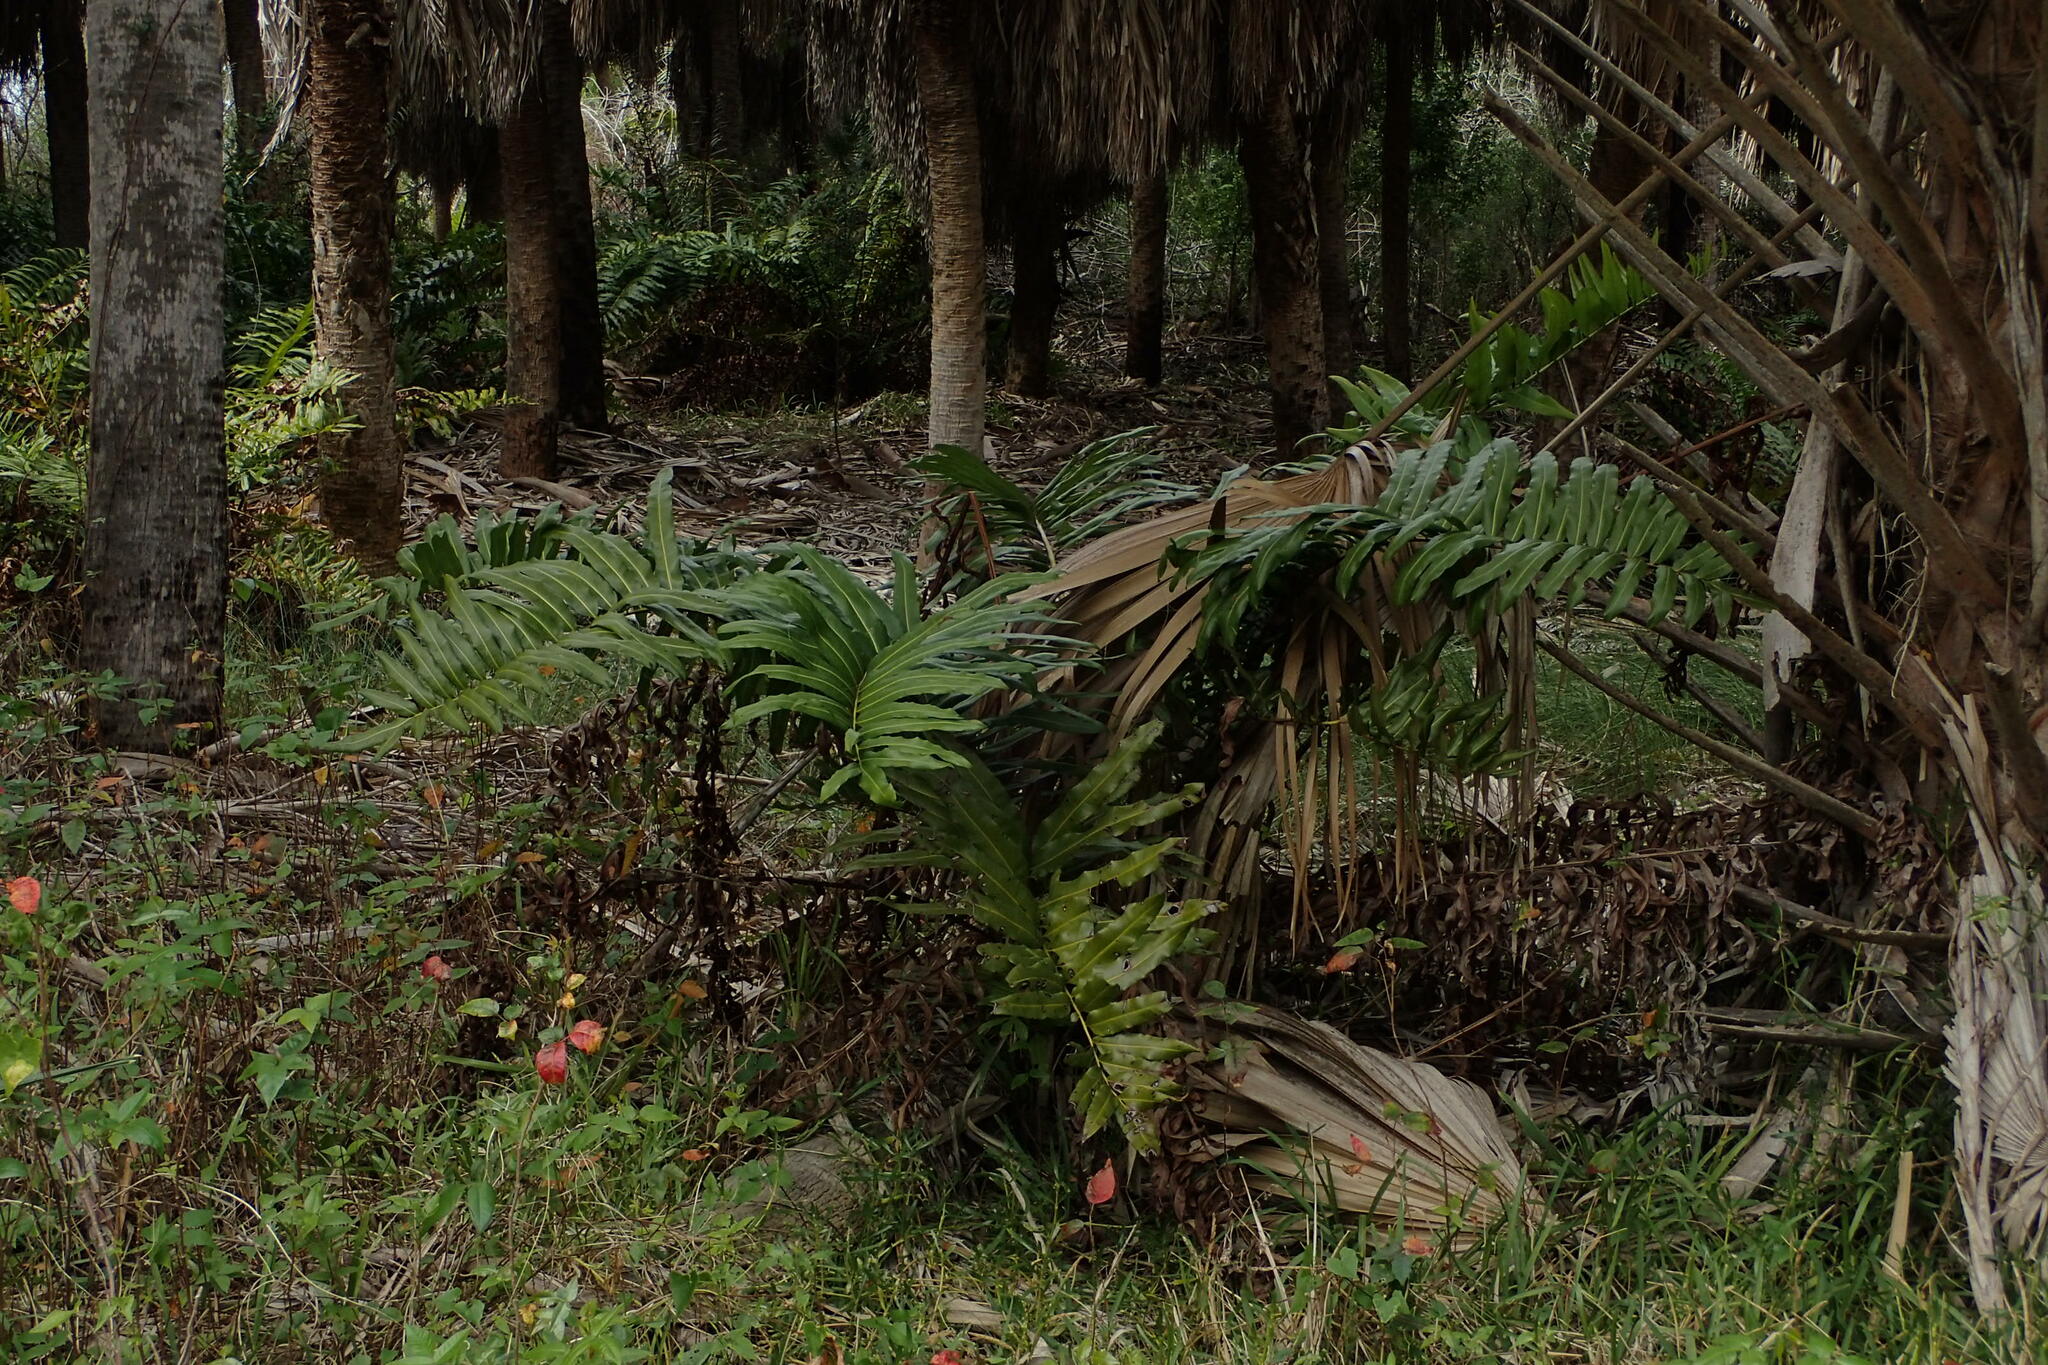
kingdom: Plantae
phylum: Tracheophyta
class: Polypodiopsida
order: Polypodiales
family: Pteridaceae
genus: Acrostichum
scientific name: Acrostichum danaeifolium
